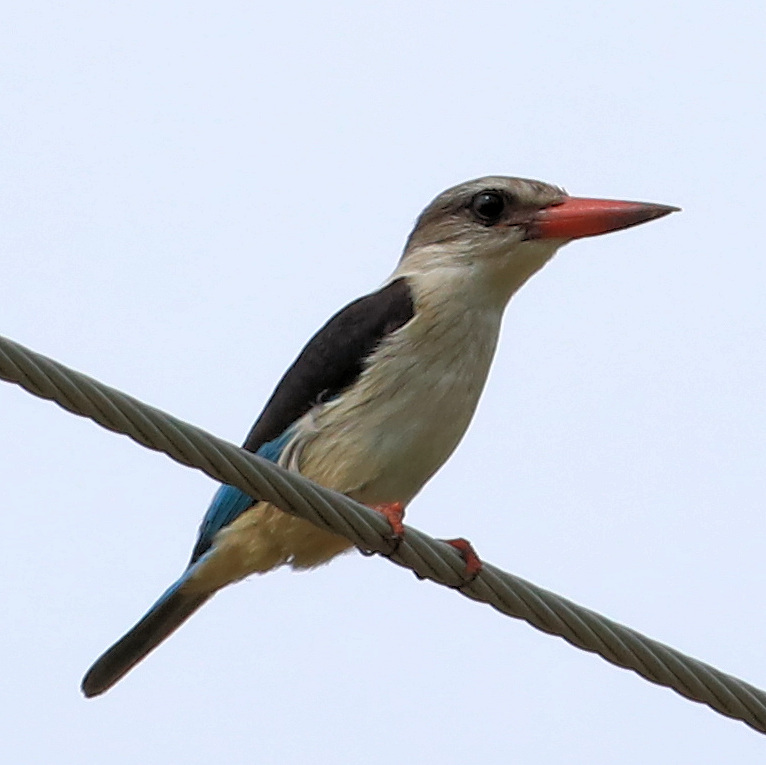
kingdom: Animalia
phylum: Chordata
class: Aves
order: Coraciiformes
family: Alcedinidae
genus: Halcyon
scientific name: Halcyon albiventris
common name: Brown-hooded kingfisher
